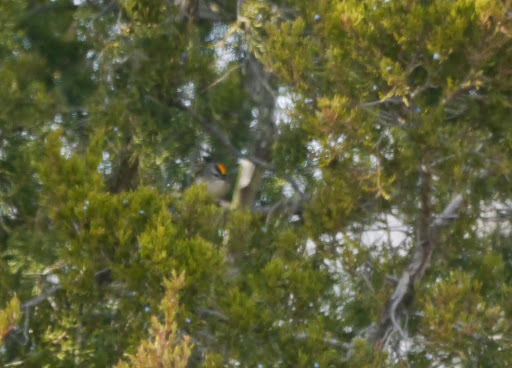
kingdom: Animalia
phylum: Chordata
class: Aves
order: Passeriformes
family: Regulidae
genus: Regulus
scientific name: Regulus satrapa
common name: Golden-crowned kinglet
